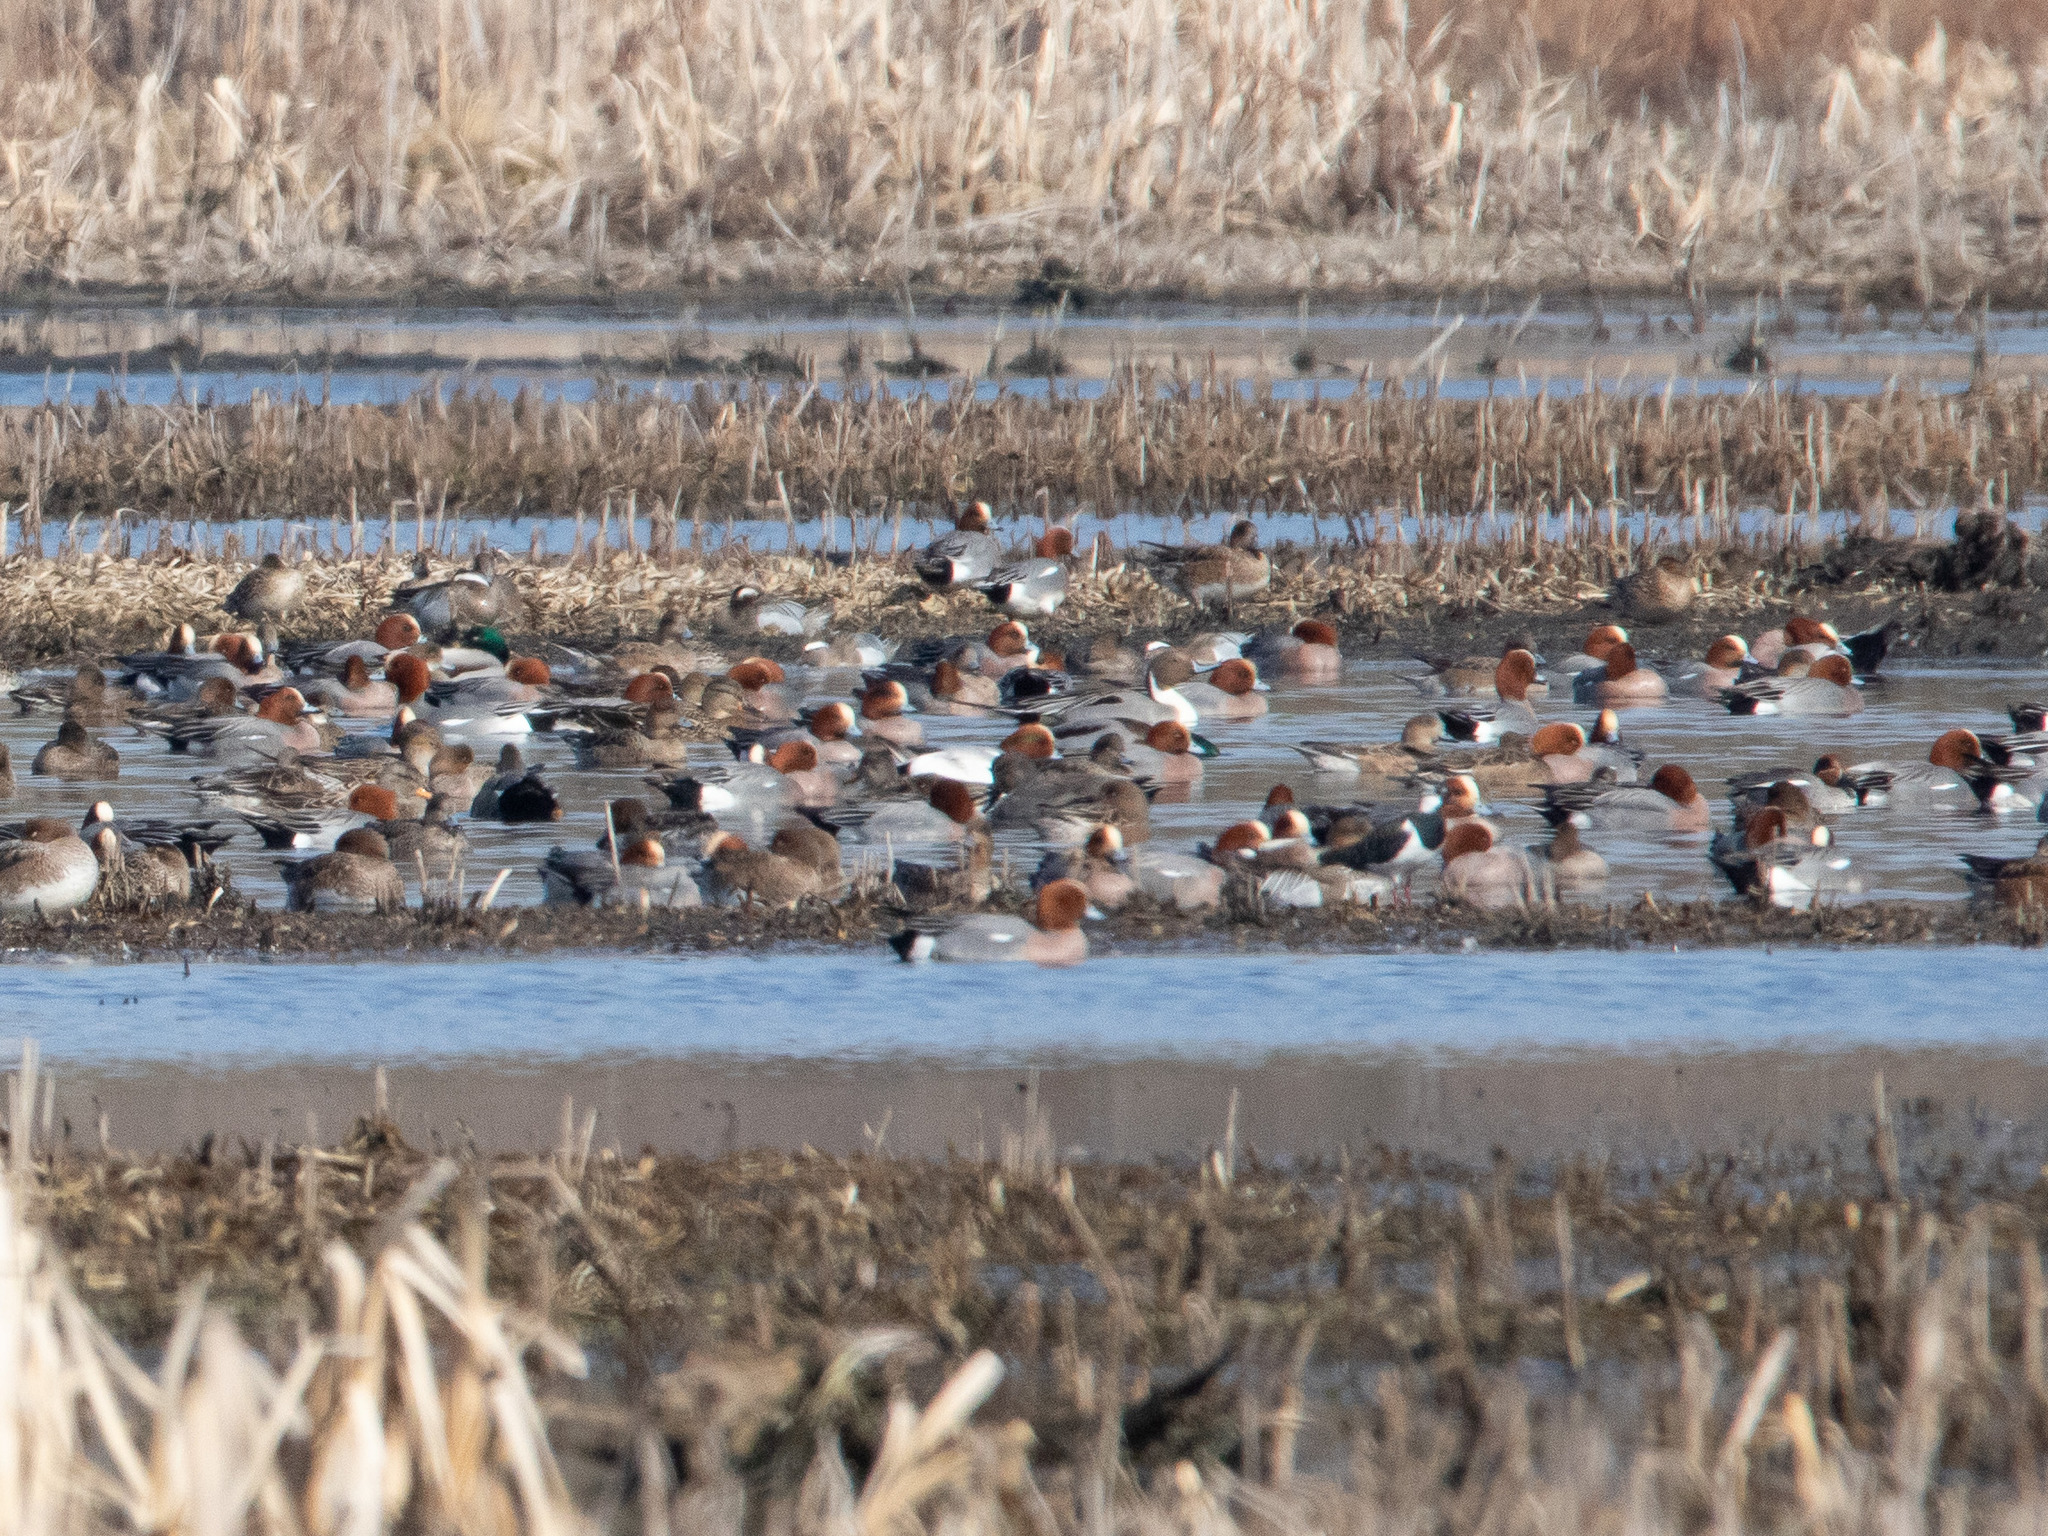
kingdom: Animalia
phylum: Chordata
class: Aves
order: Anseriformes
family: Anatidae
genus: Mareca
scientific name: Mareca penelope
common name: Eurasian wigeon
